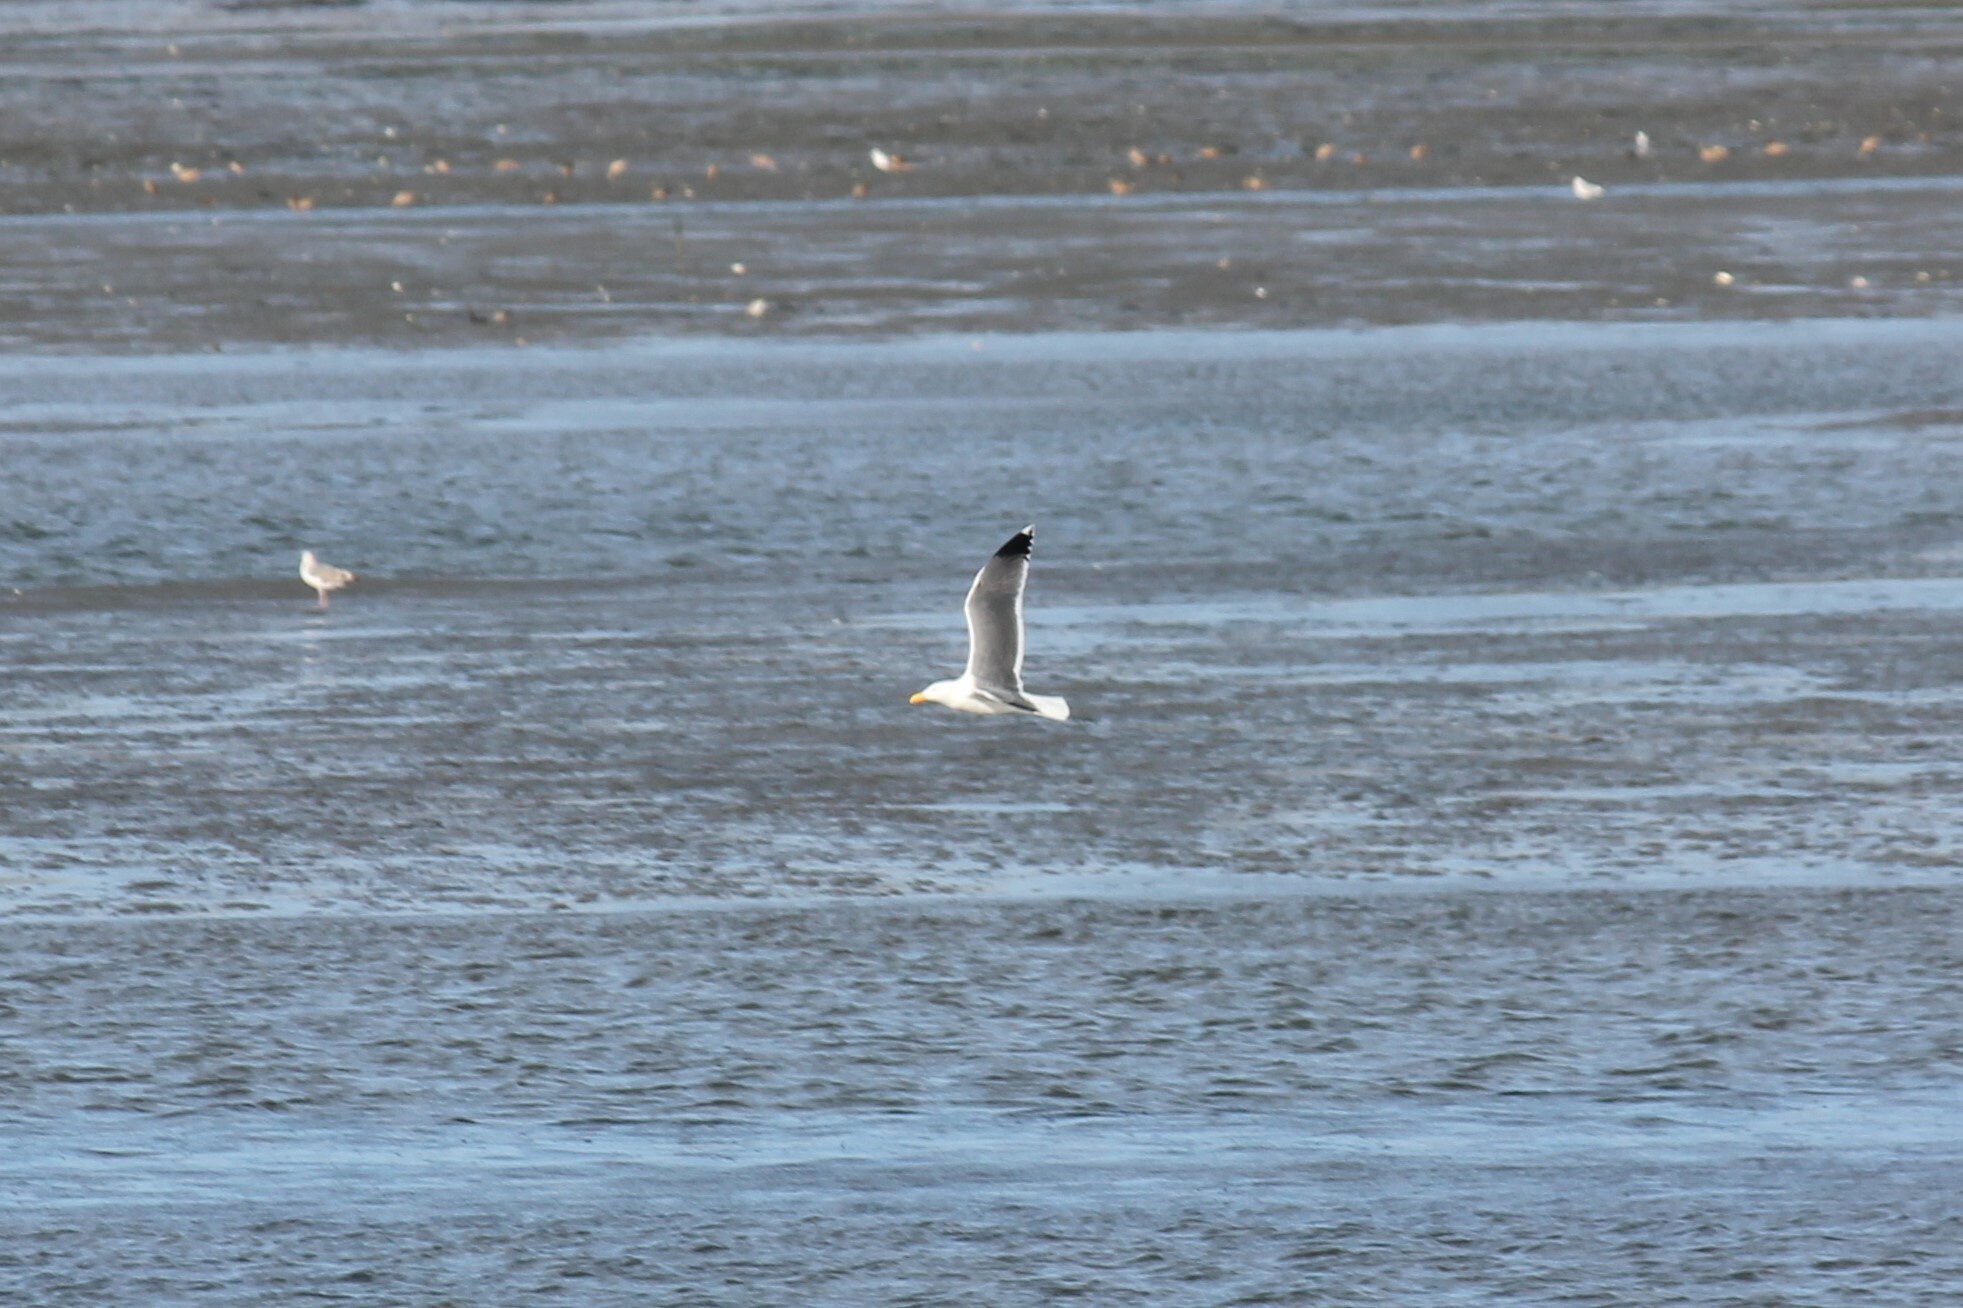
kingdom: Animalia
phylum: Chordata
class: Aves
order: Charadriiformes
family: Laridae
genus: Larus
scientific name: Larus occidentalis
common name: Western gull
